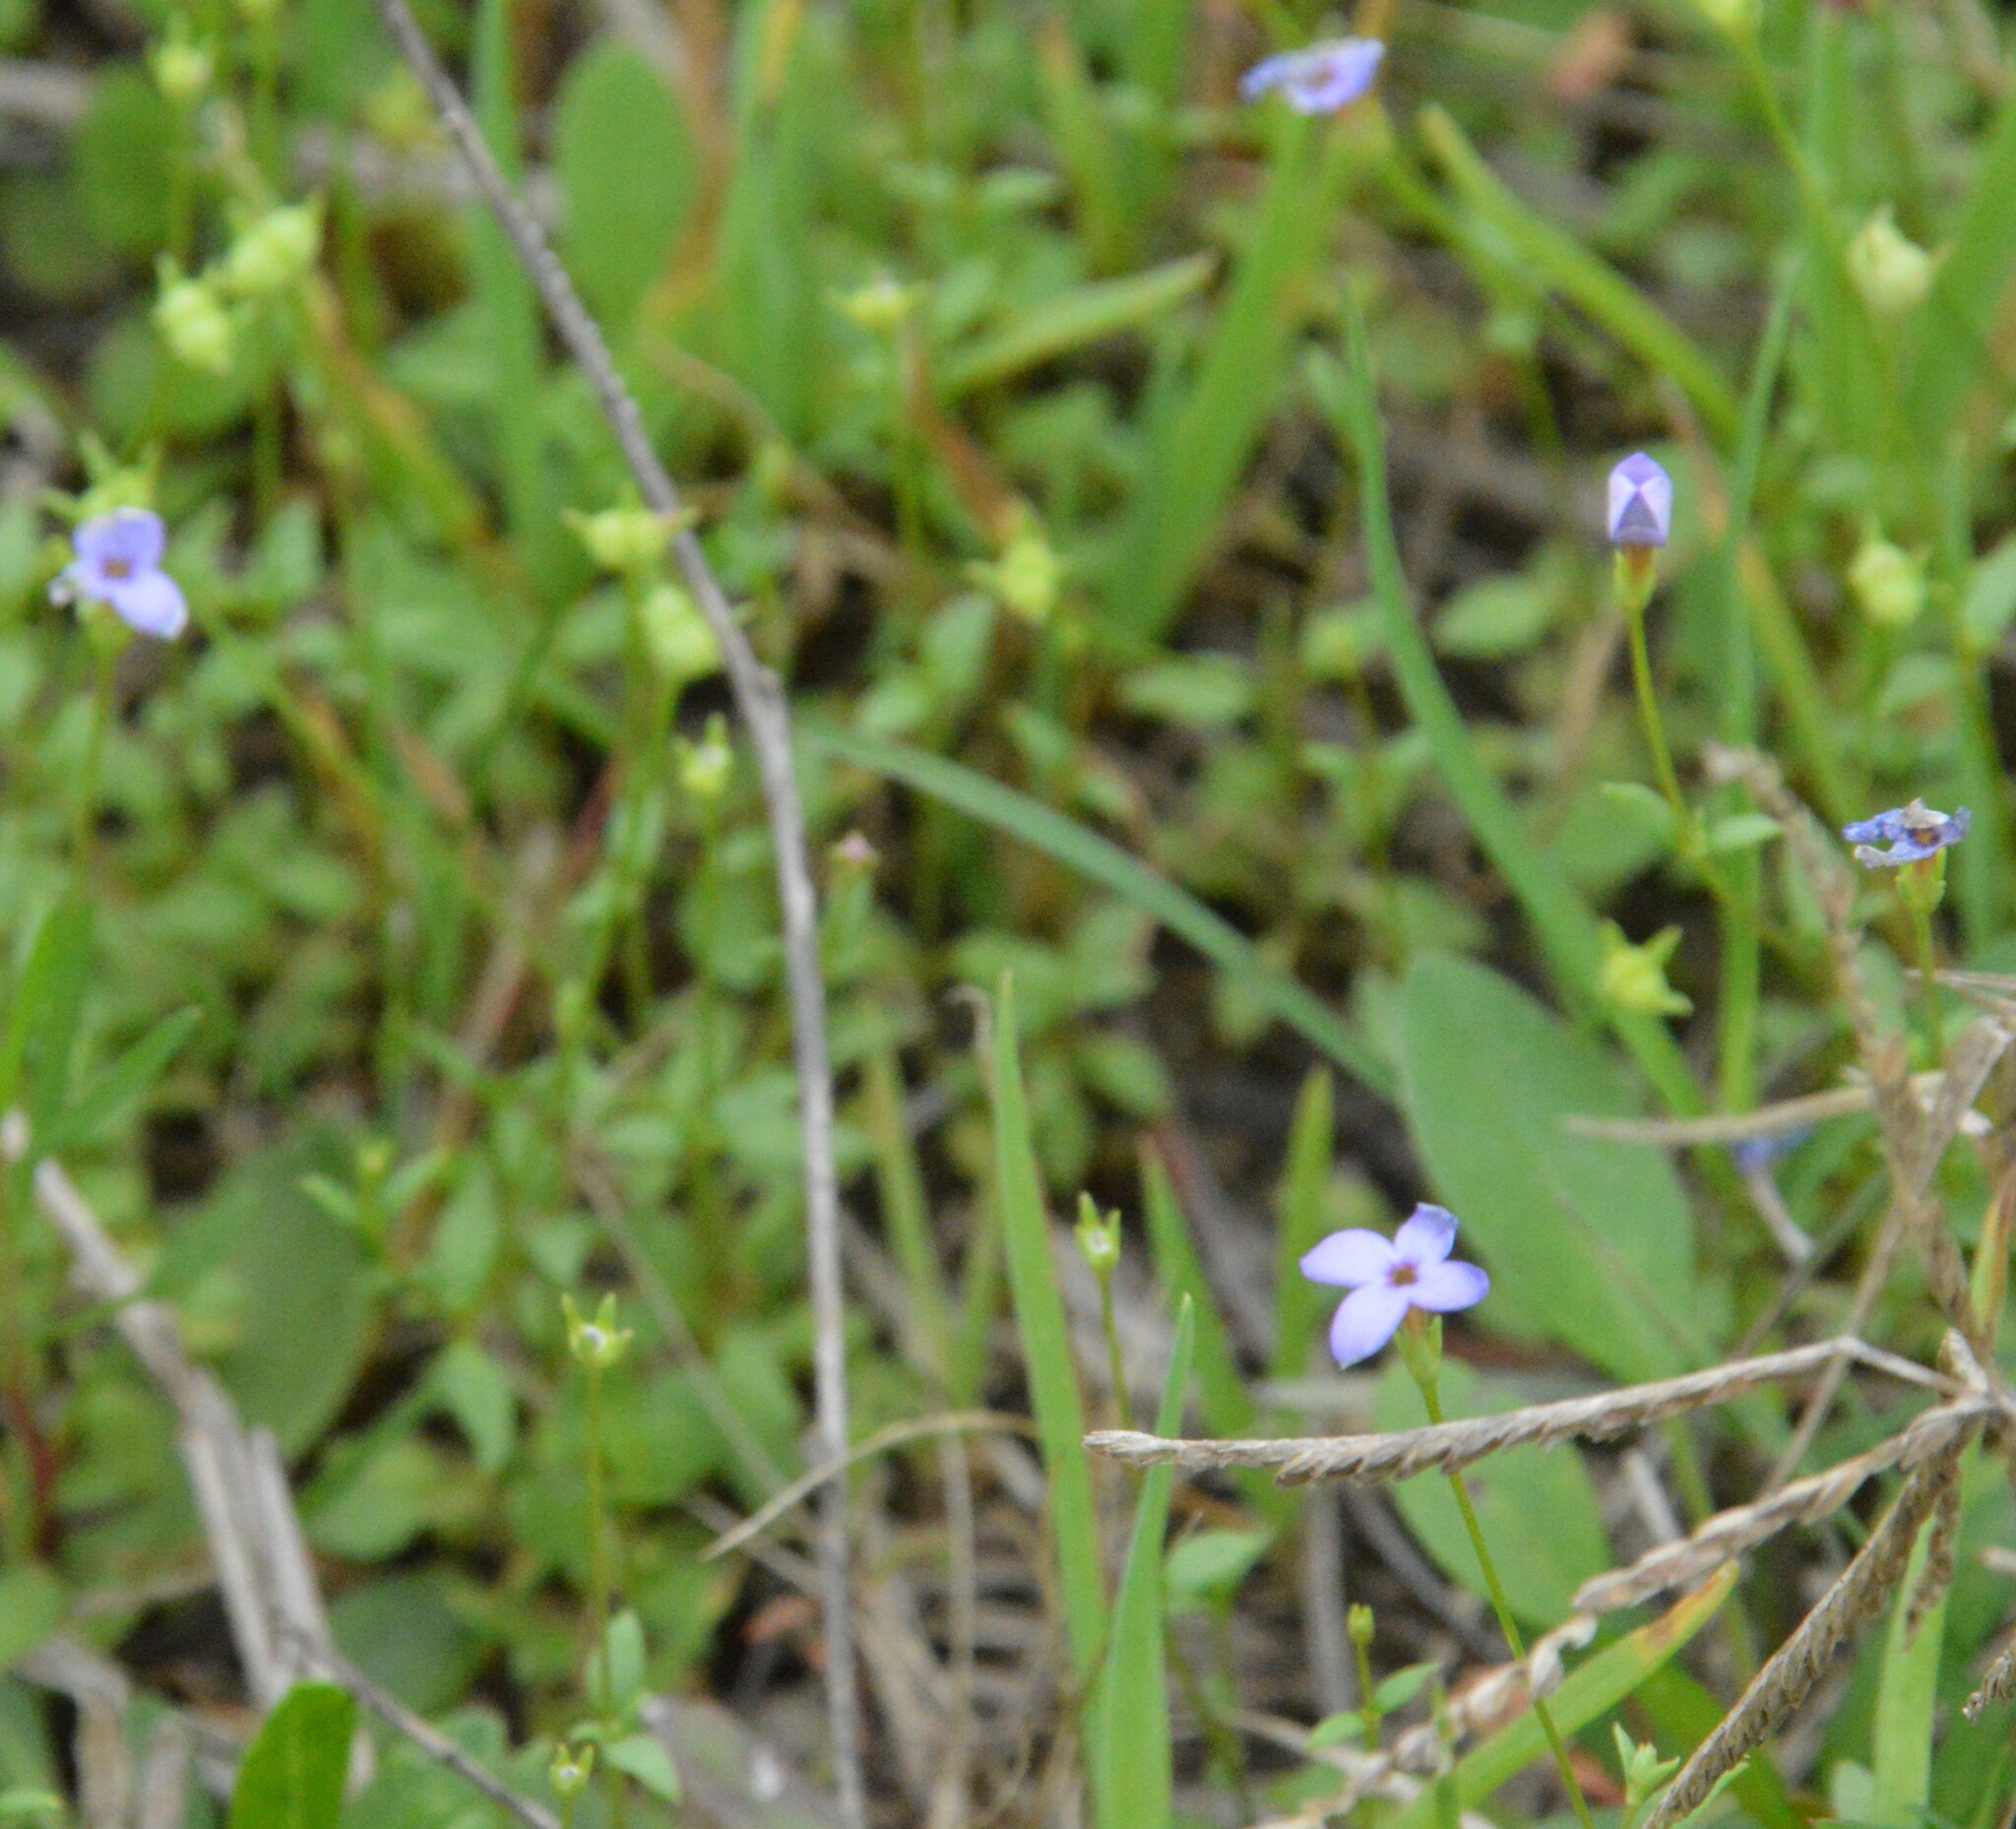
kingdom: Plantae
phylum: Tracheophyta
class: Magnoliopsida
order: Gentianales
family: Rubiaceae
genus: Houstonia
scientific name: Houstonia pusilla
